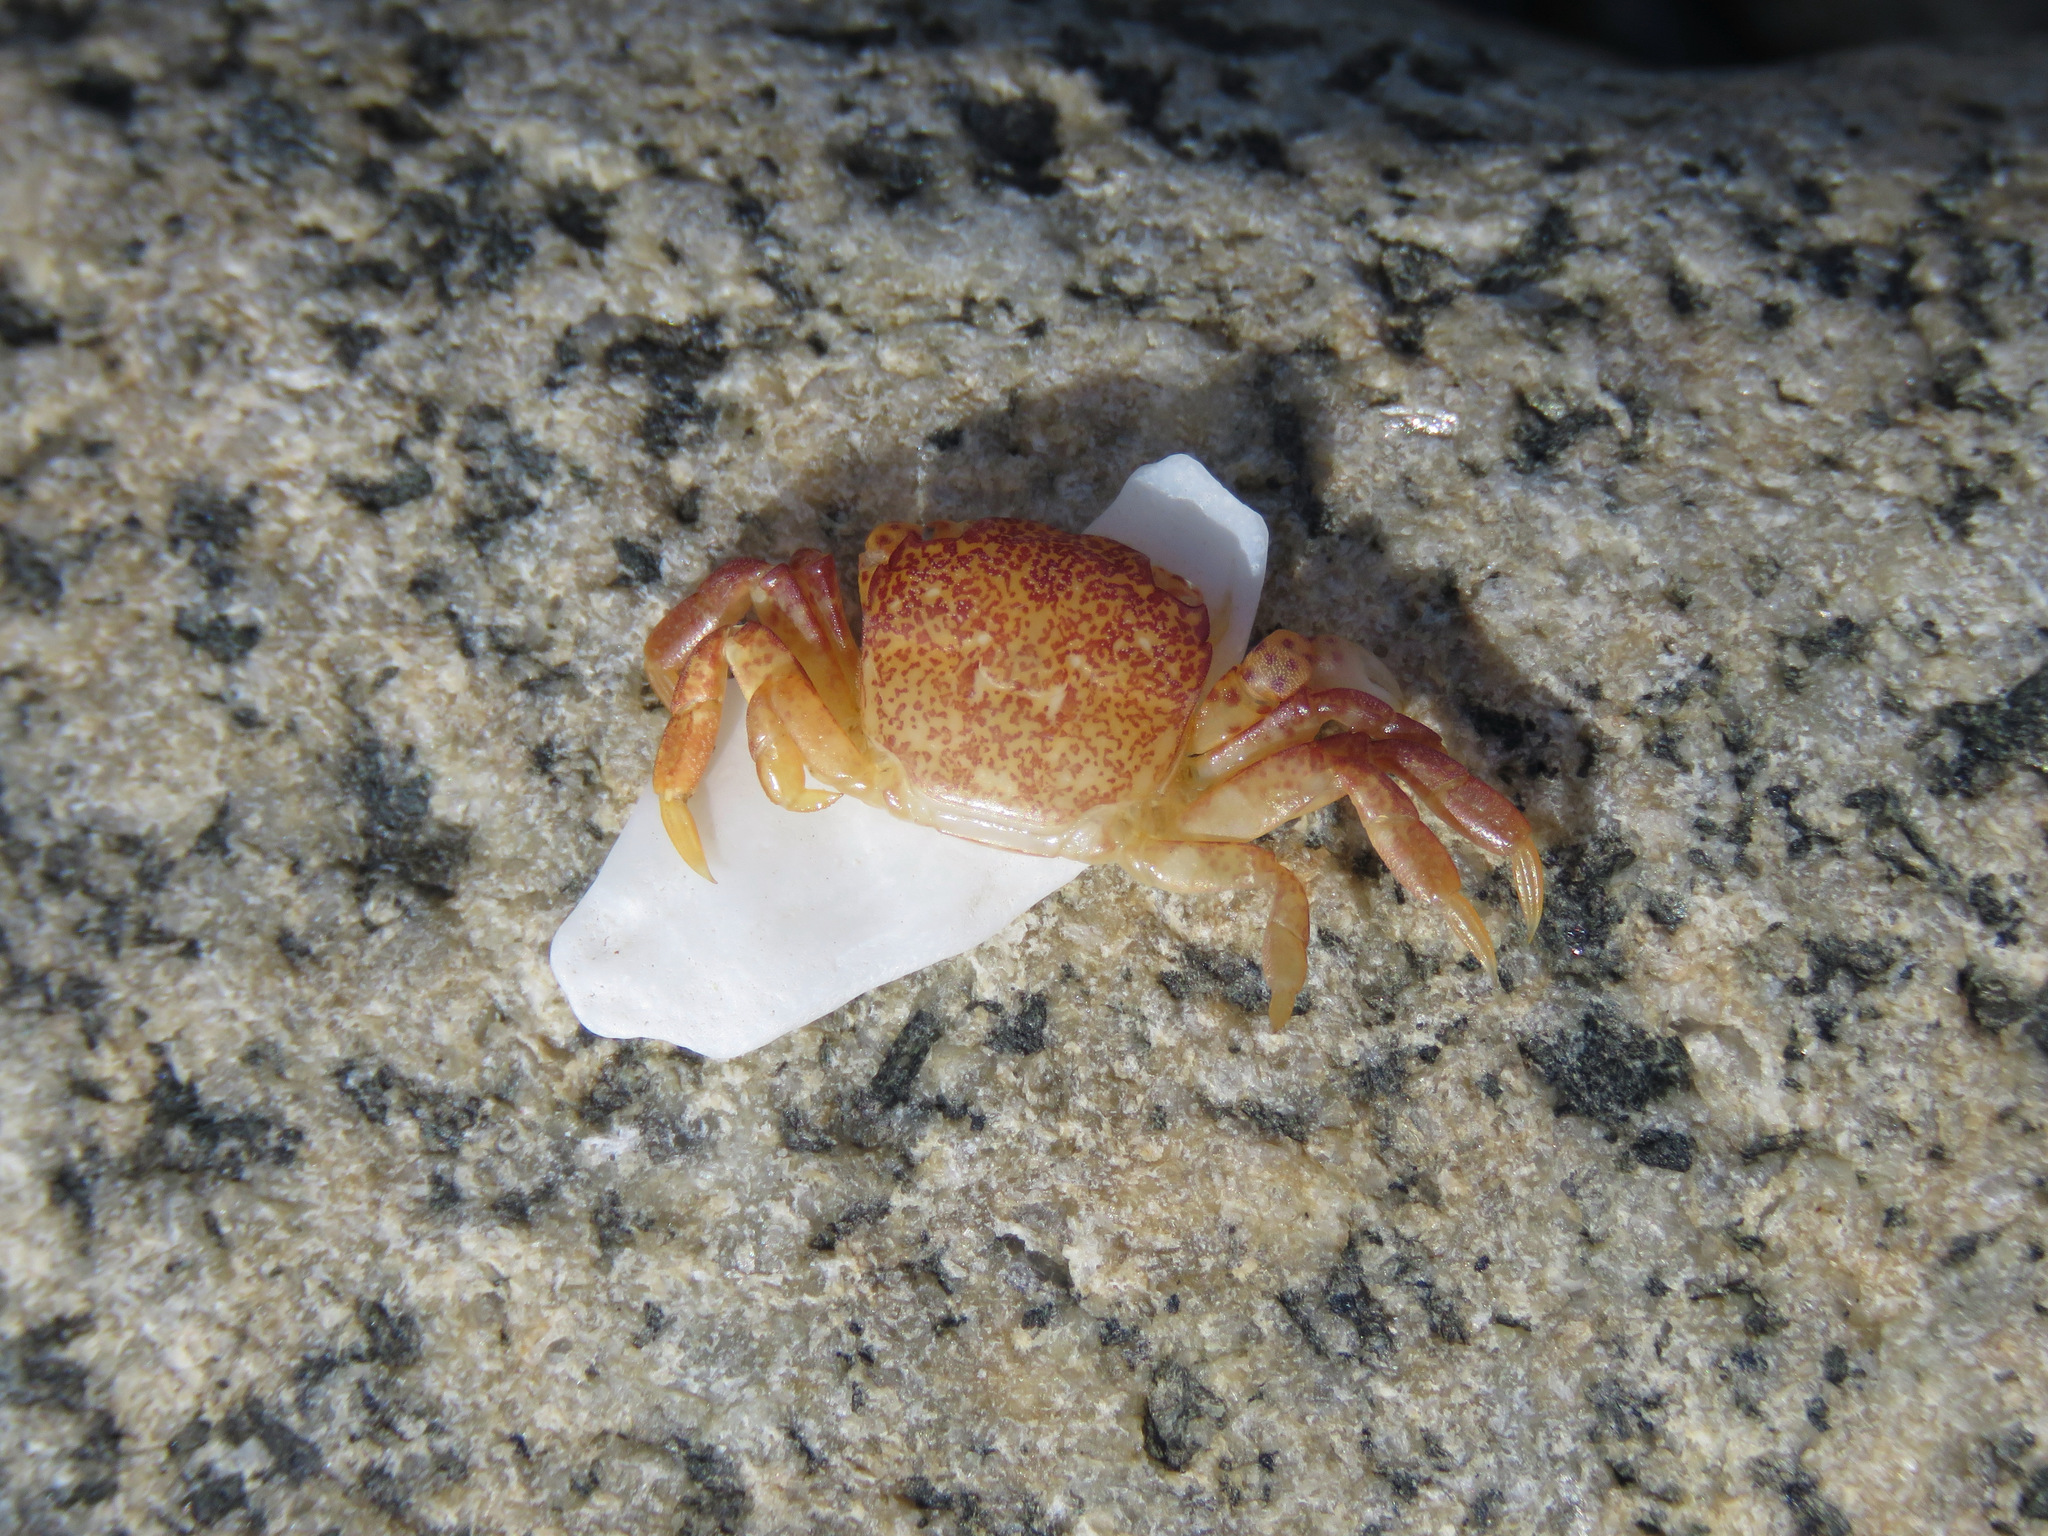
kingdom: Animalia
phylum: Arthropoda
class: Malacostraca
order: Decapoda
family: Varunidae
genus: Hemigrapsus
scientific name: Hemigrapsus nudus
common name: Purple shore crab
